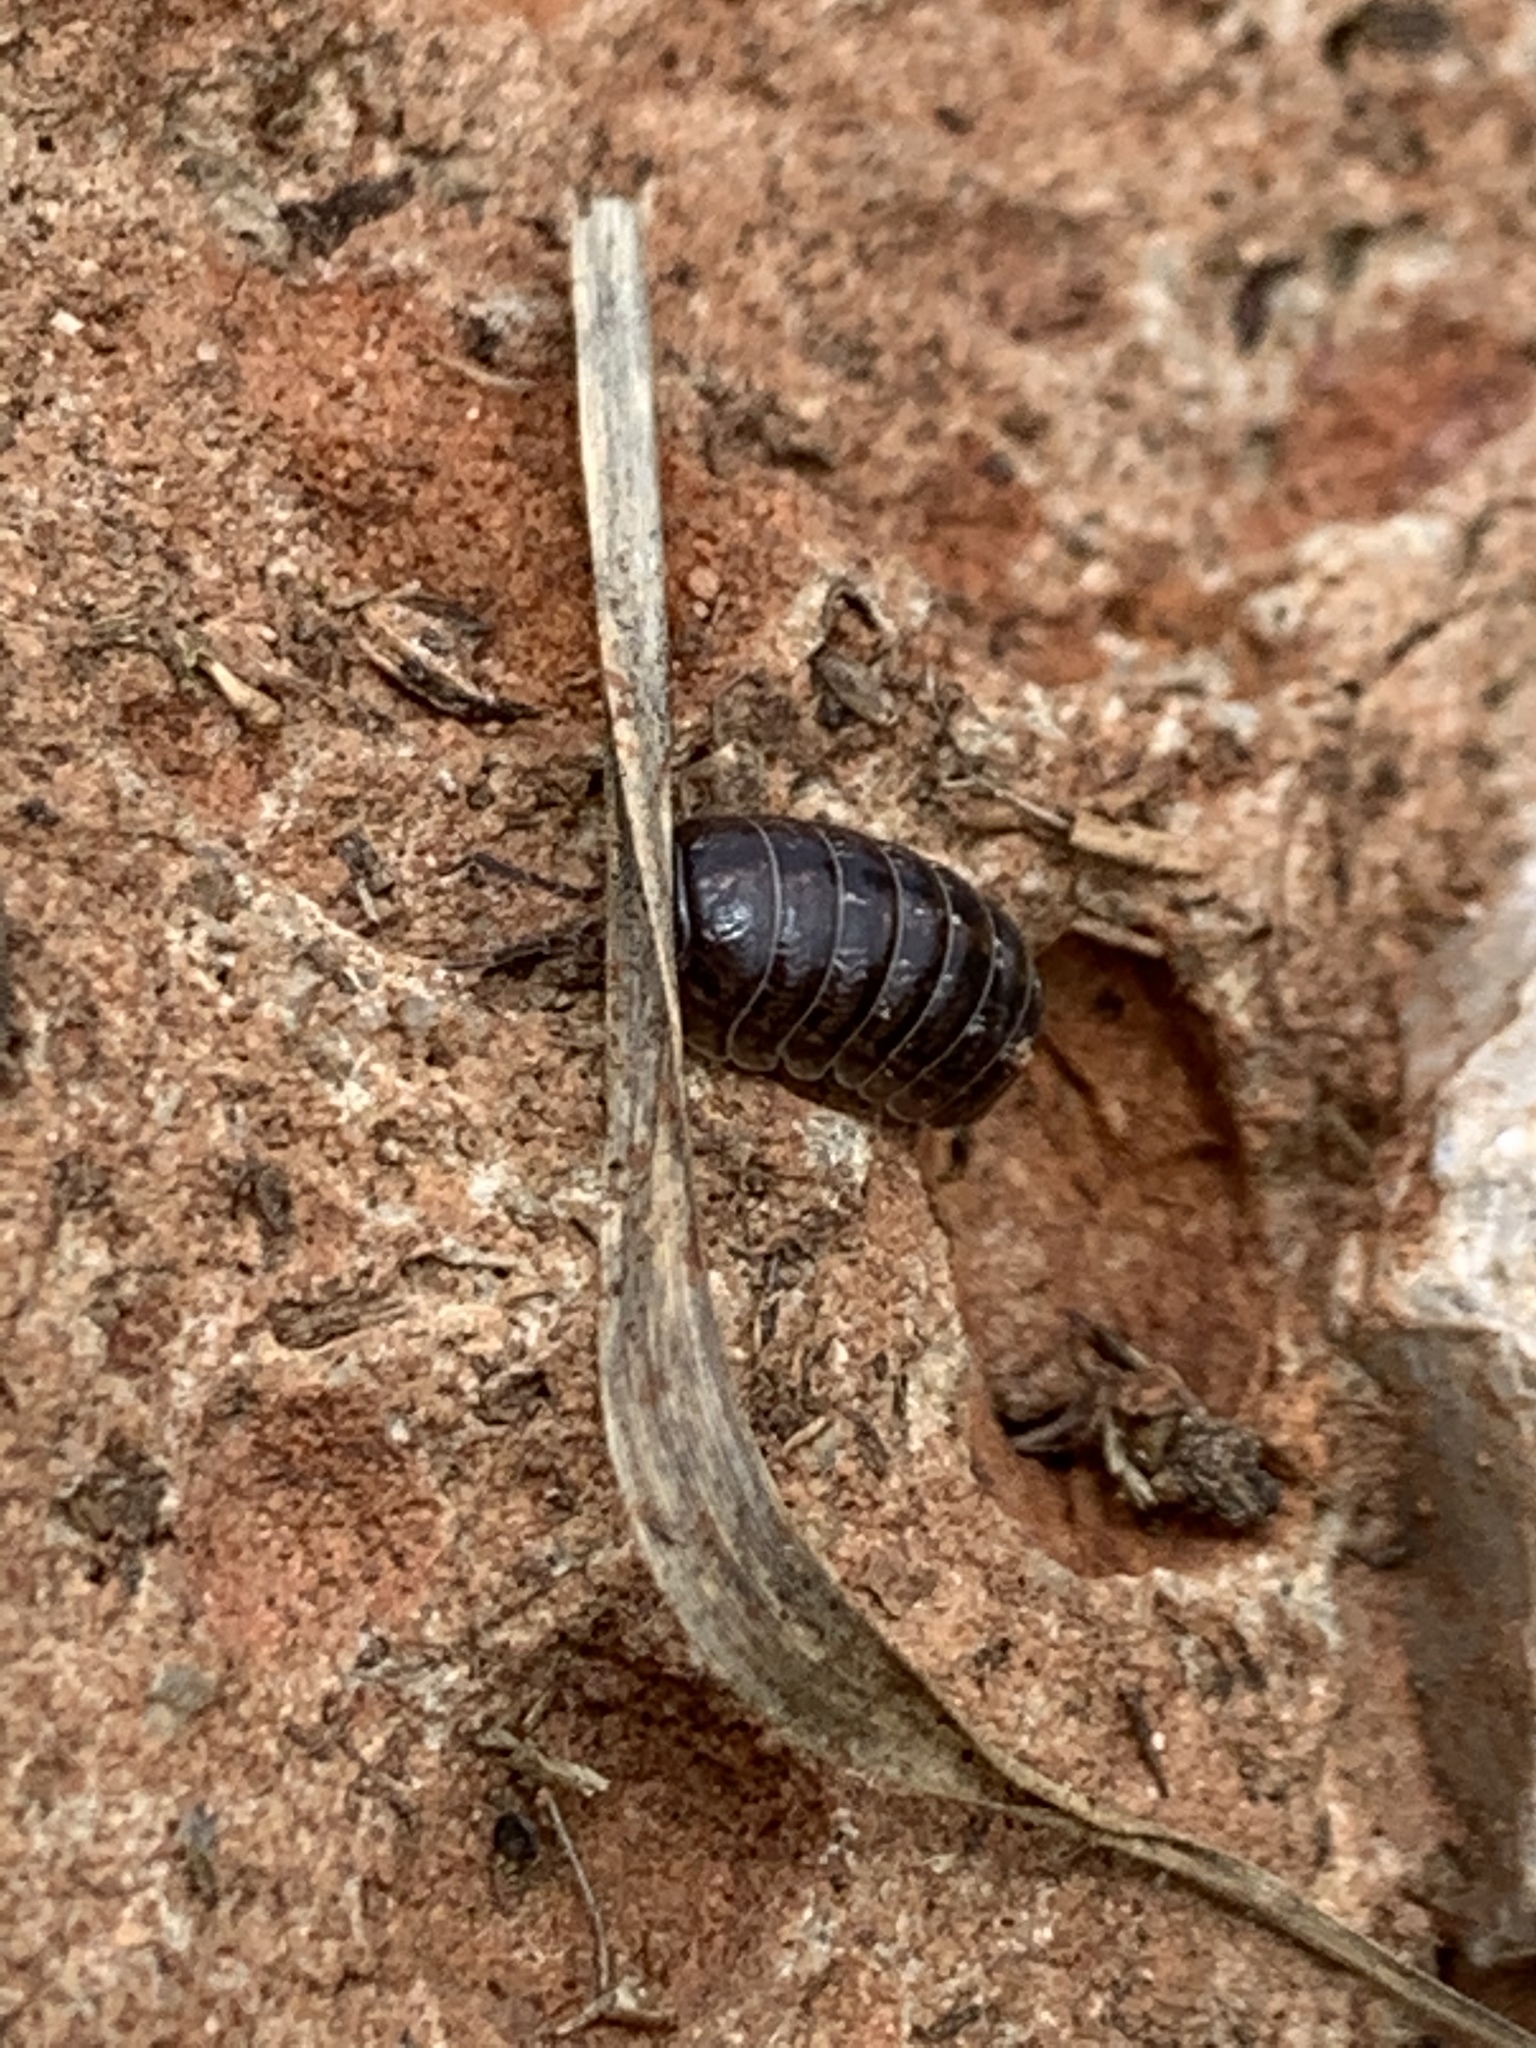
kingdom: Animalia
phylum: Arthropoda
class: Malacostraca
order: Isopoda
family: Armadillidiidae
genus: Armadillidium
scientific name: Armadillidium vulgare
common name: Common pill woodlouse
